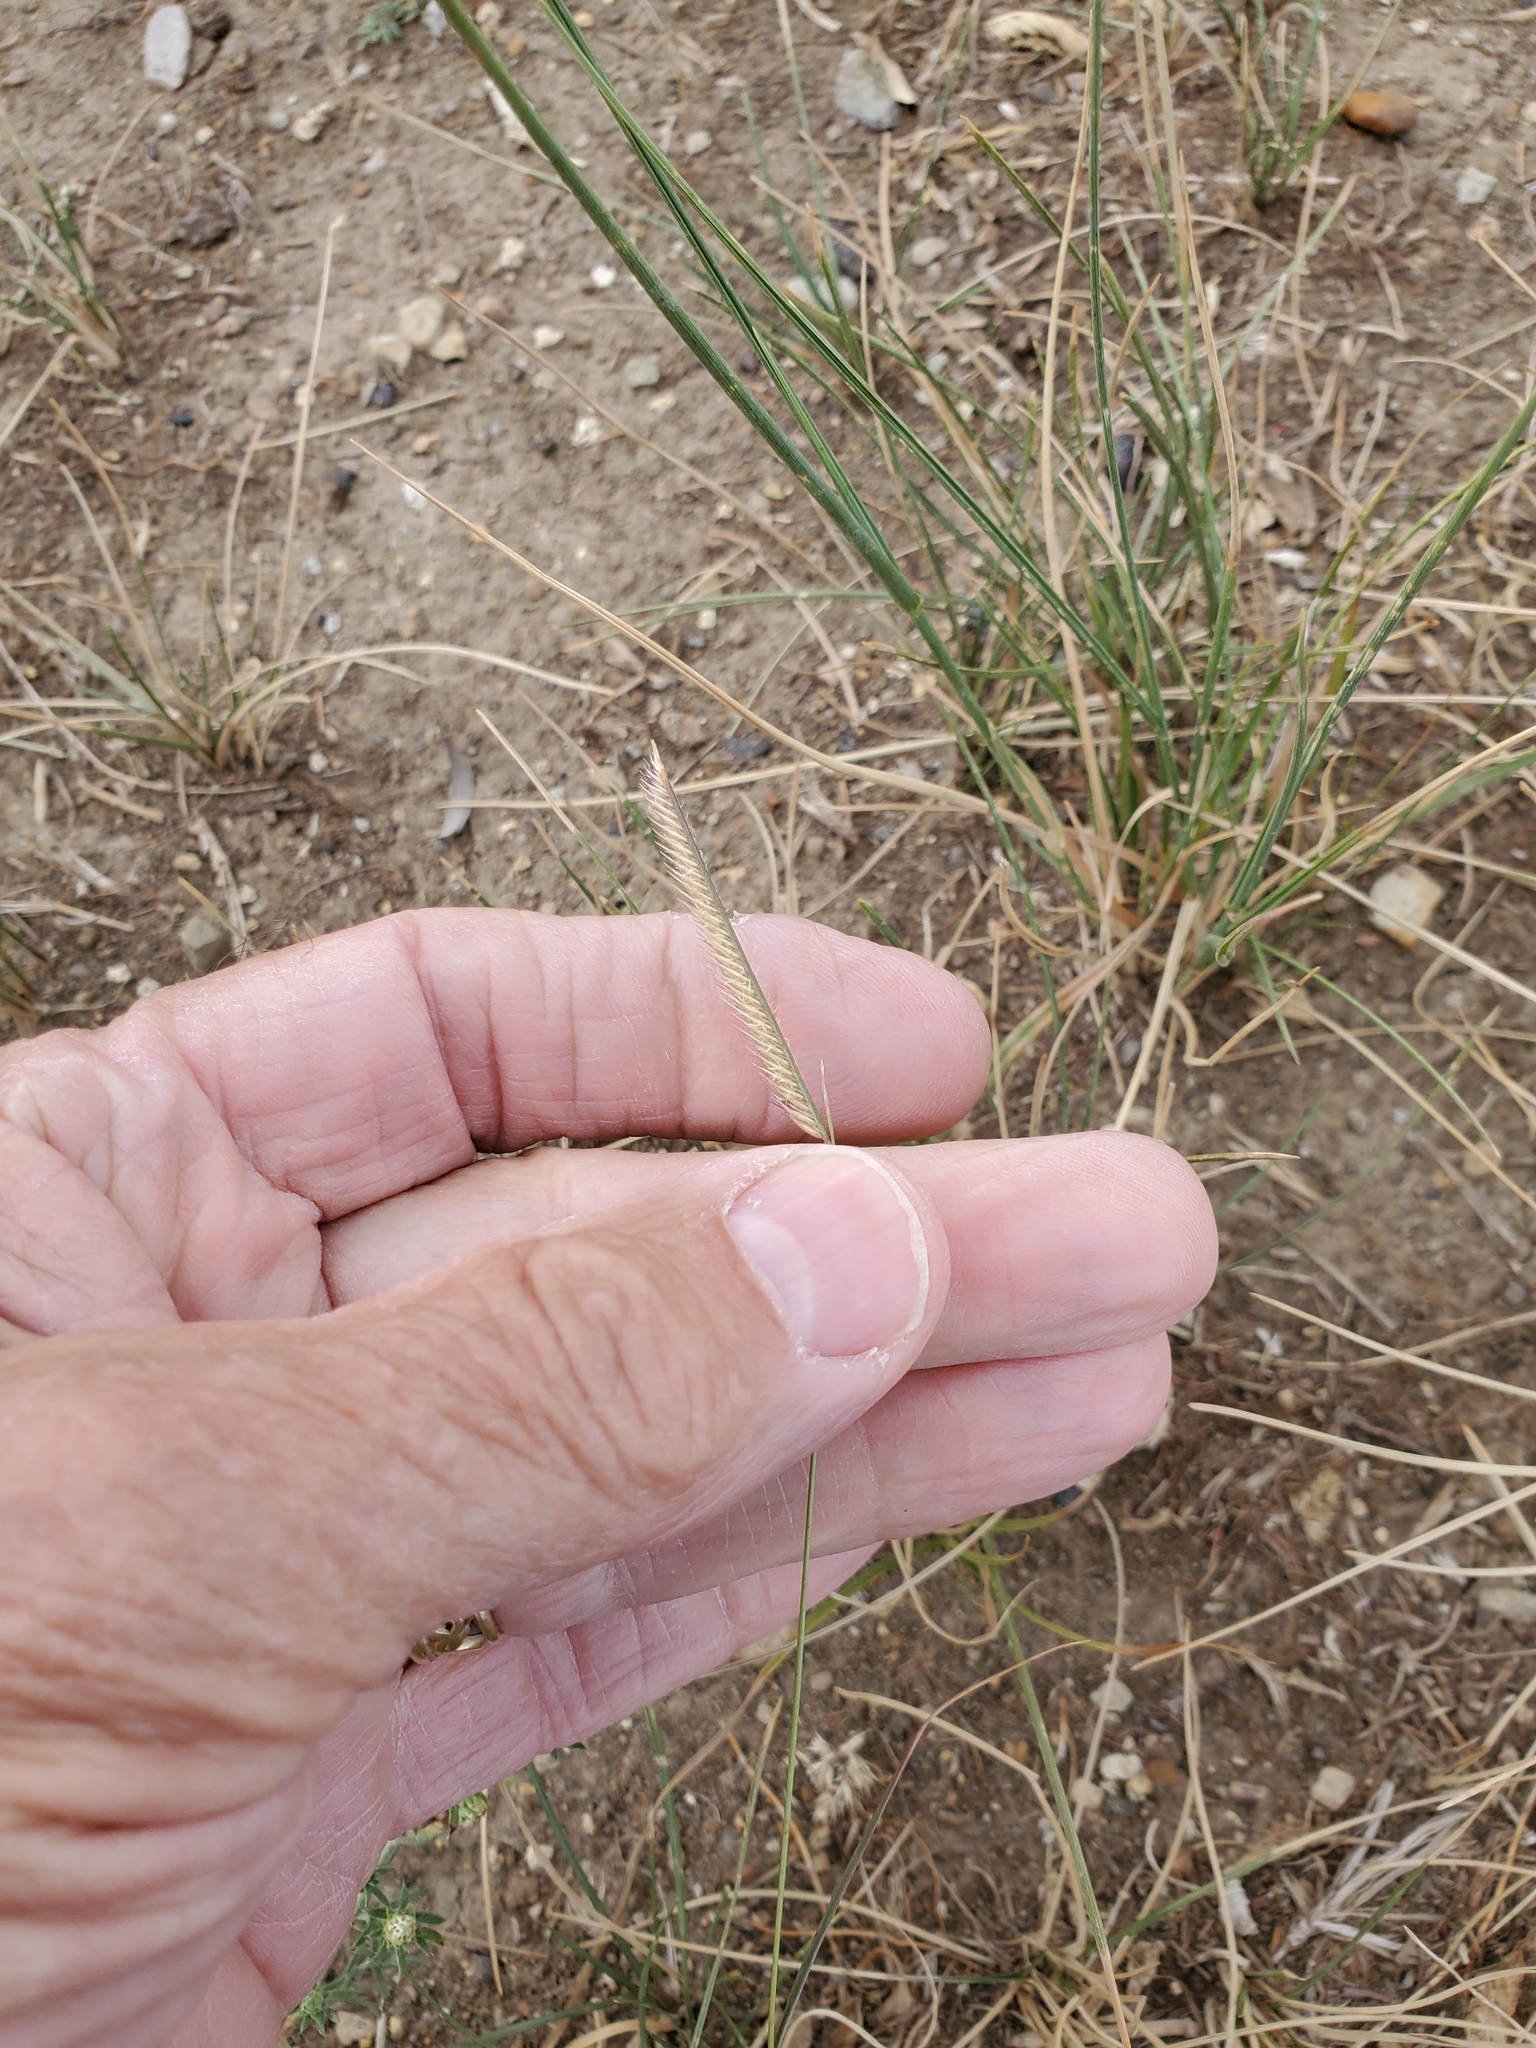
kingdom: Plantae
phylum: Tracheophyta
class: Liliopsida
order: Poales
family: Poaceae
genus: Bouteloua
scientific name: Bouteloua gracilis
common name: Blue grama
